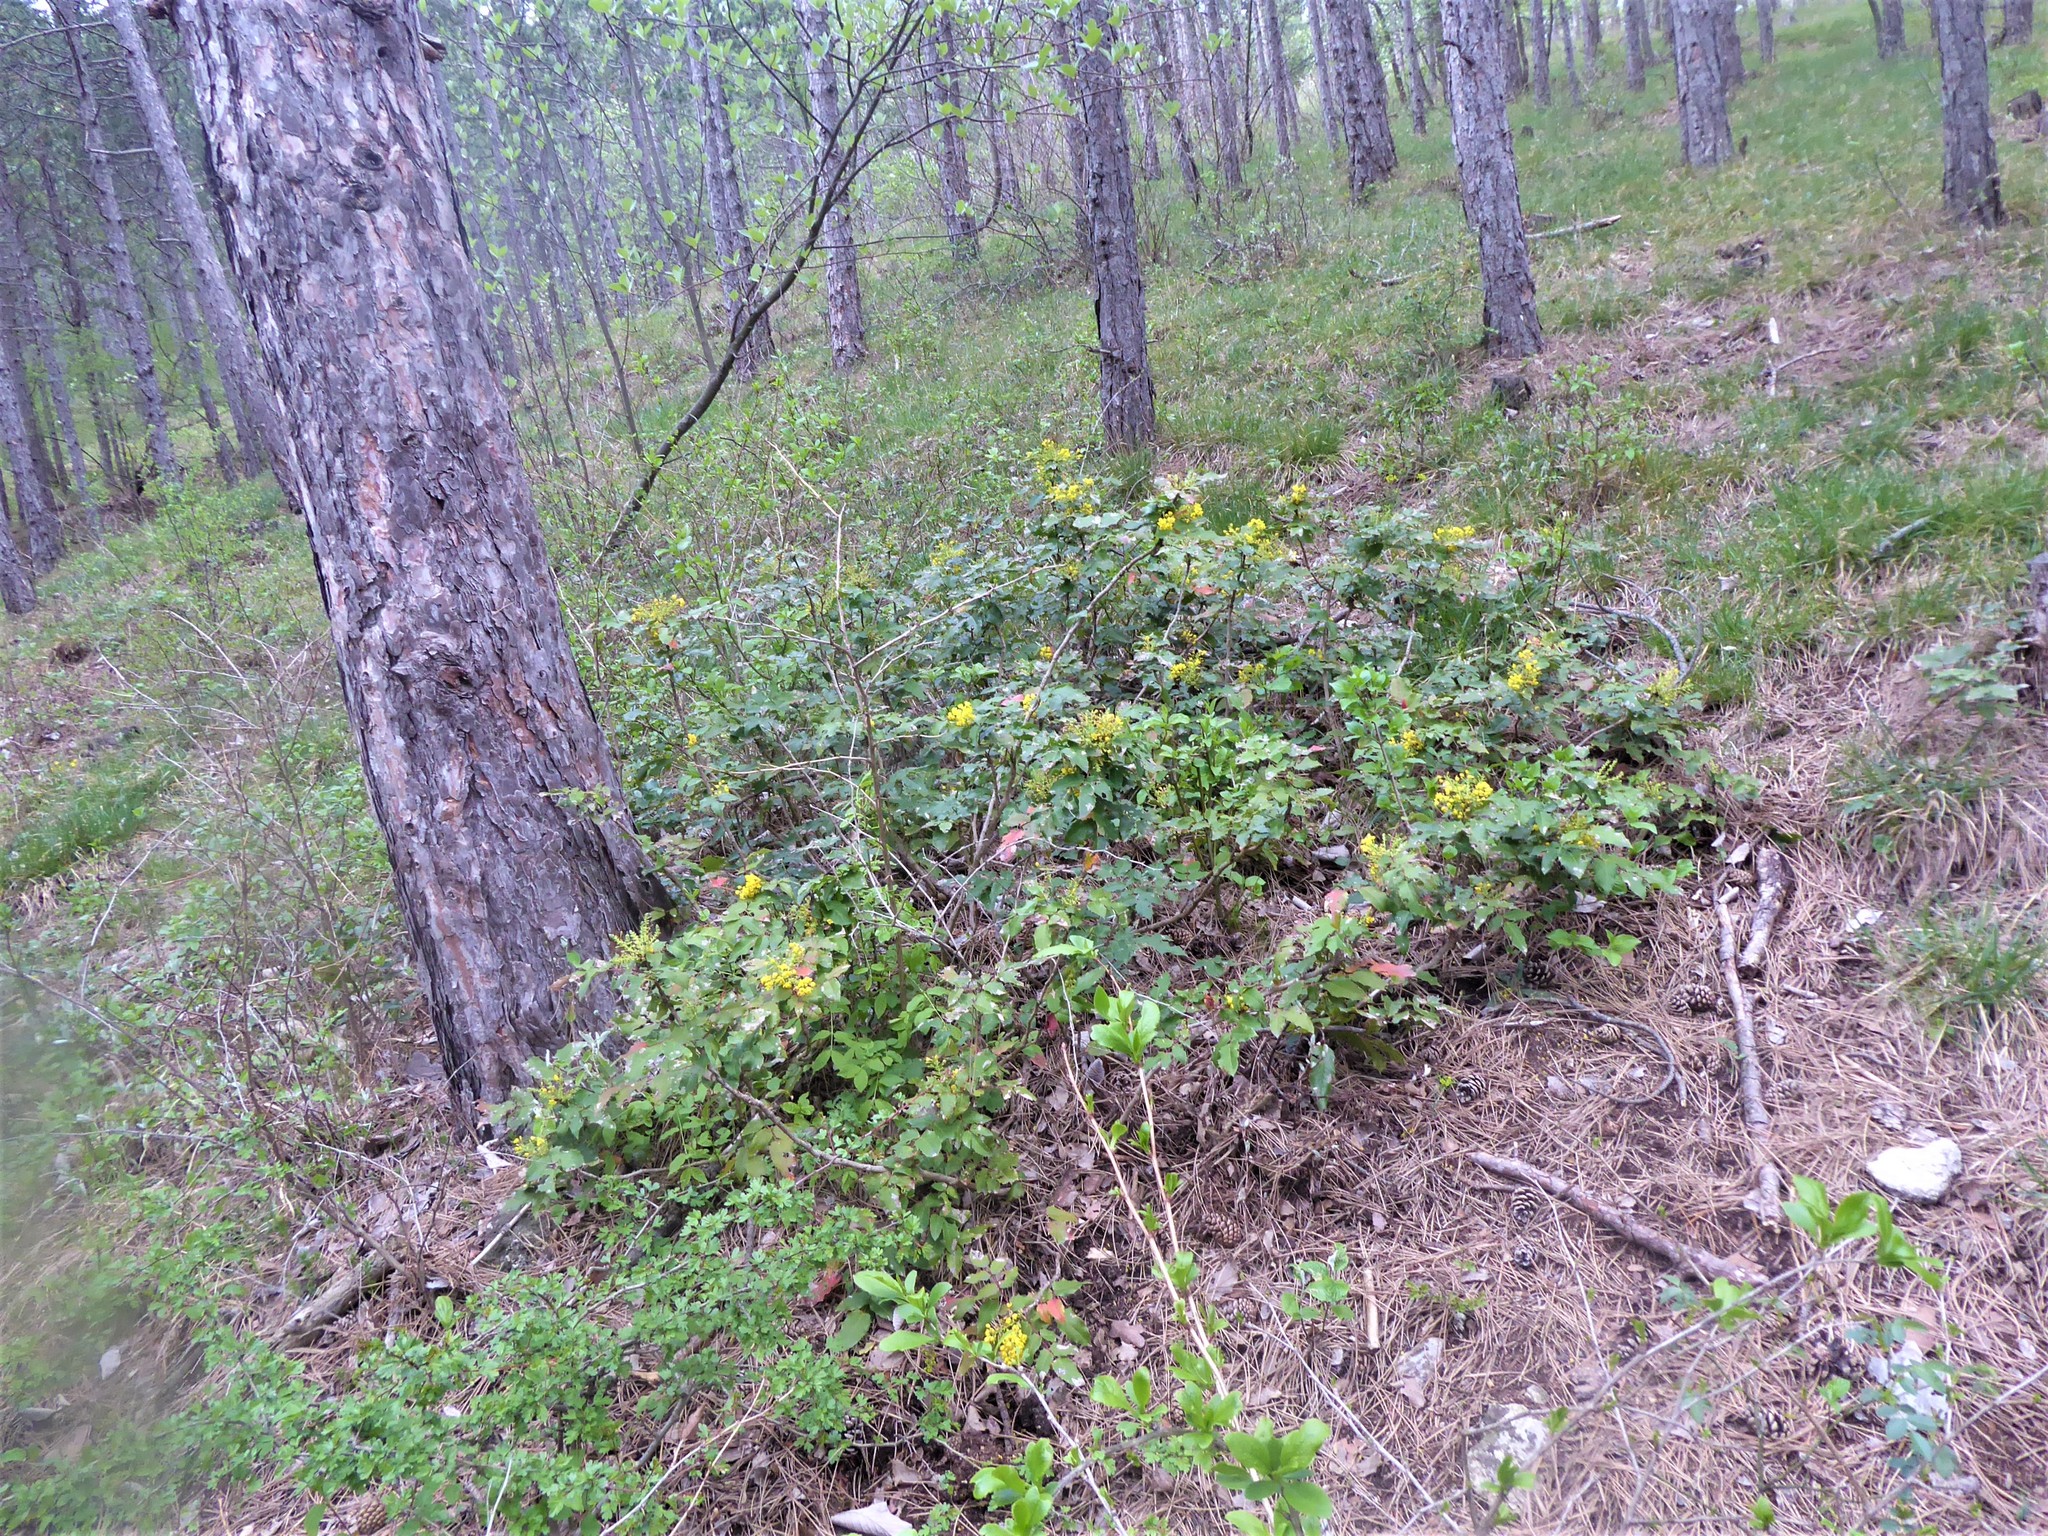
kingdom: Plantae
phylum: Tracheophyta
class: Magnoliopsida
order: Ranunculales
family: Berberidaceae
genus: Mahonia
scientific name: Mahonia aquifolium
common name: Oregon-grape
